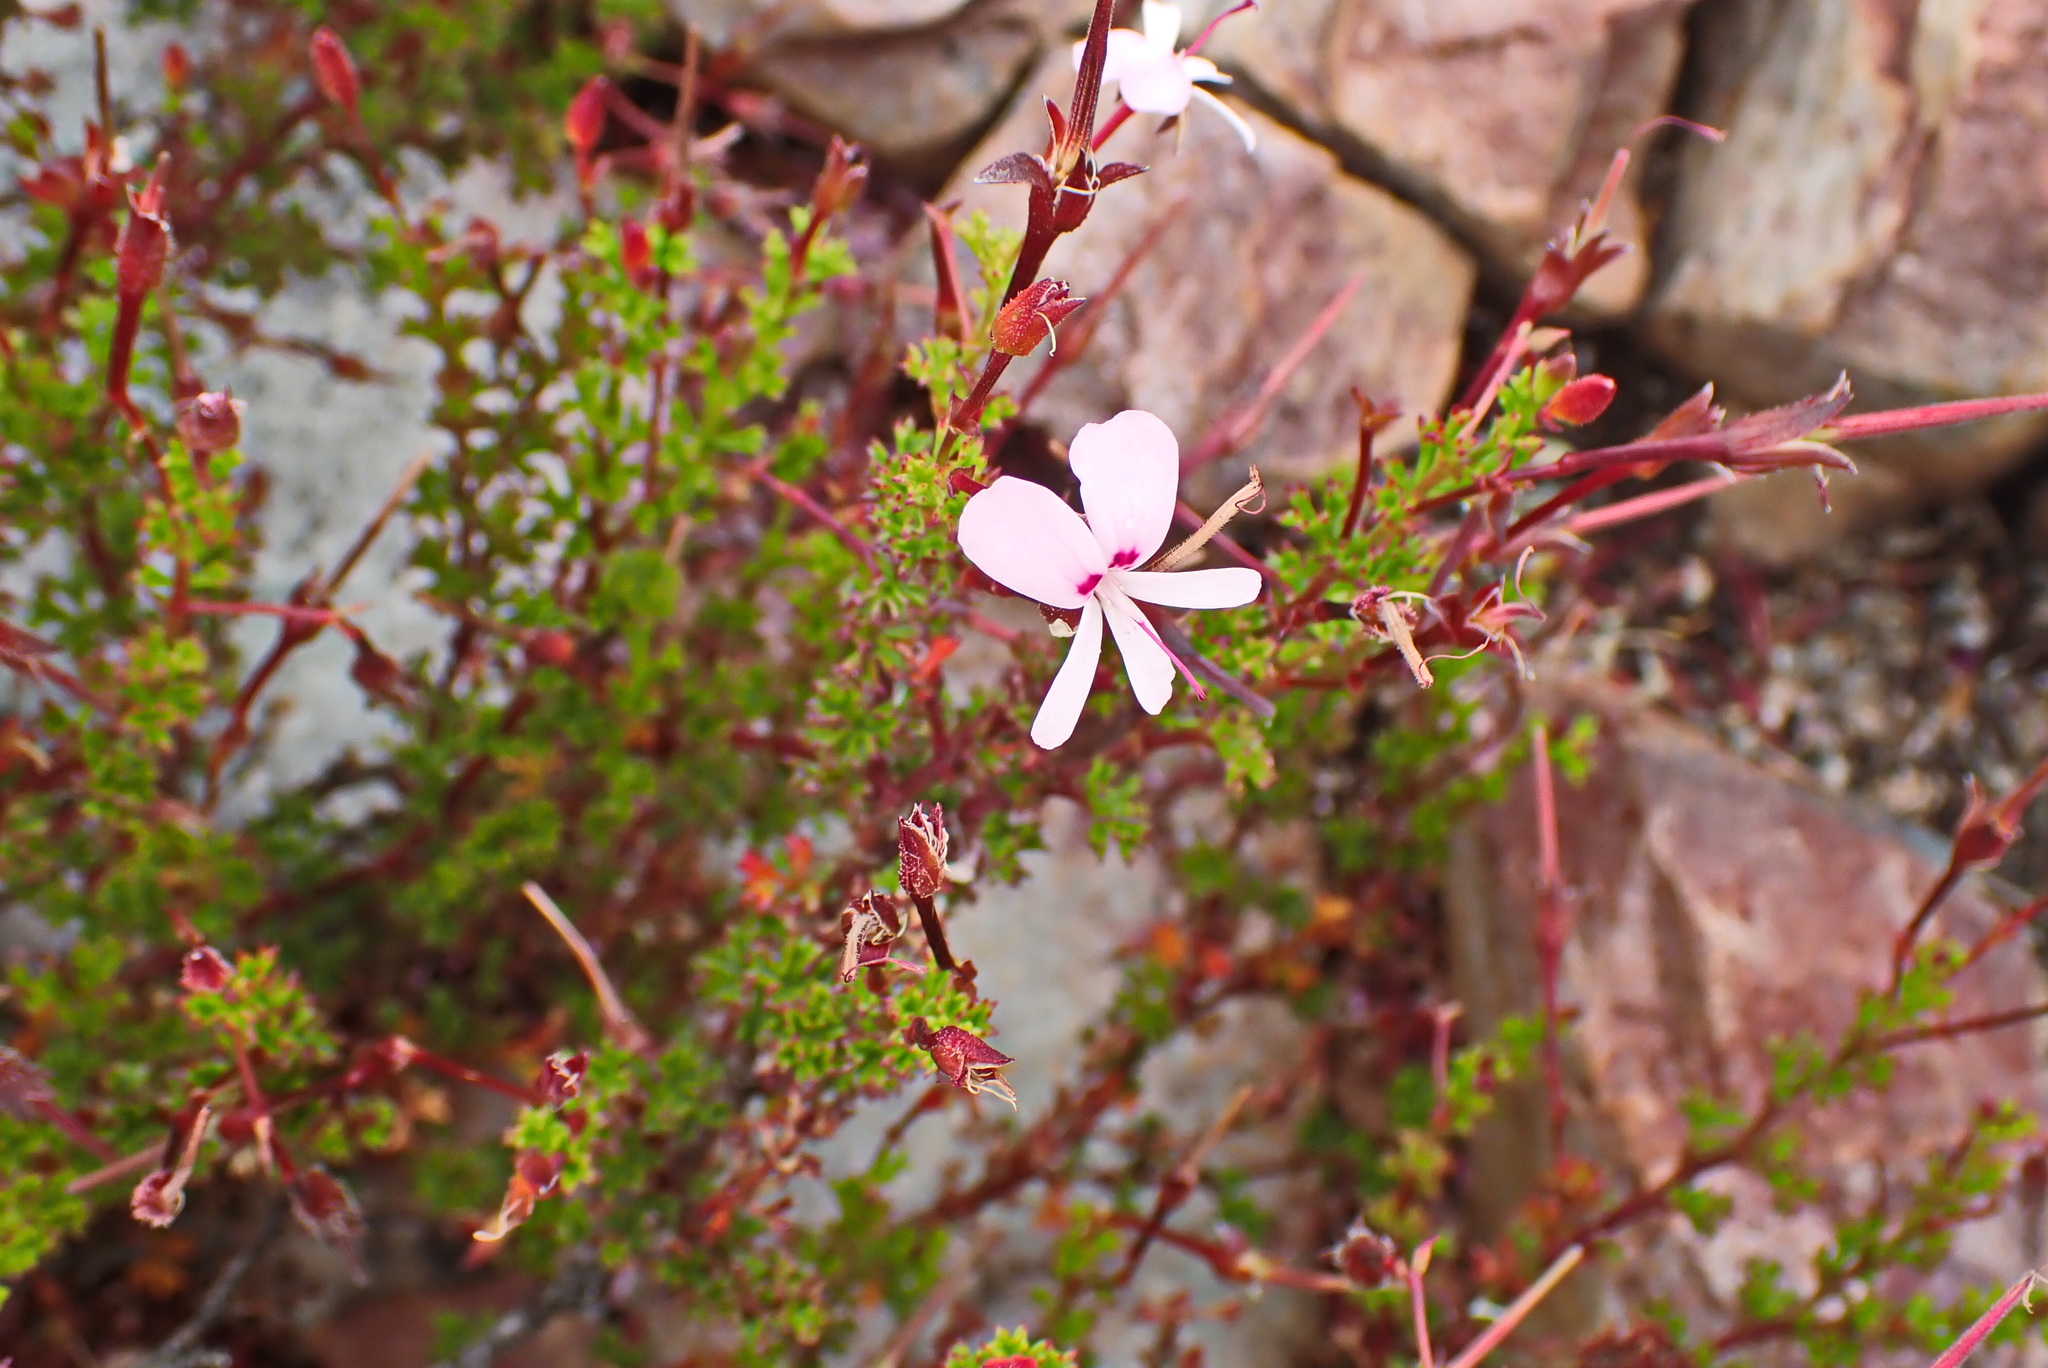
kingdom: Plantae
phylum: Tracheophyta
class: Magnoliopsida
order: Geraniales
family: Geraniaceae
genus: Pelargonium
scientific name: Pelargonium fruticosum
